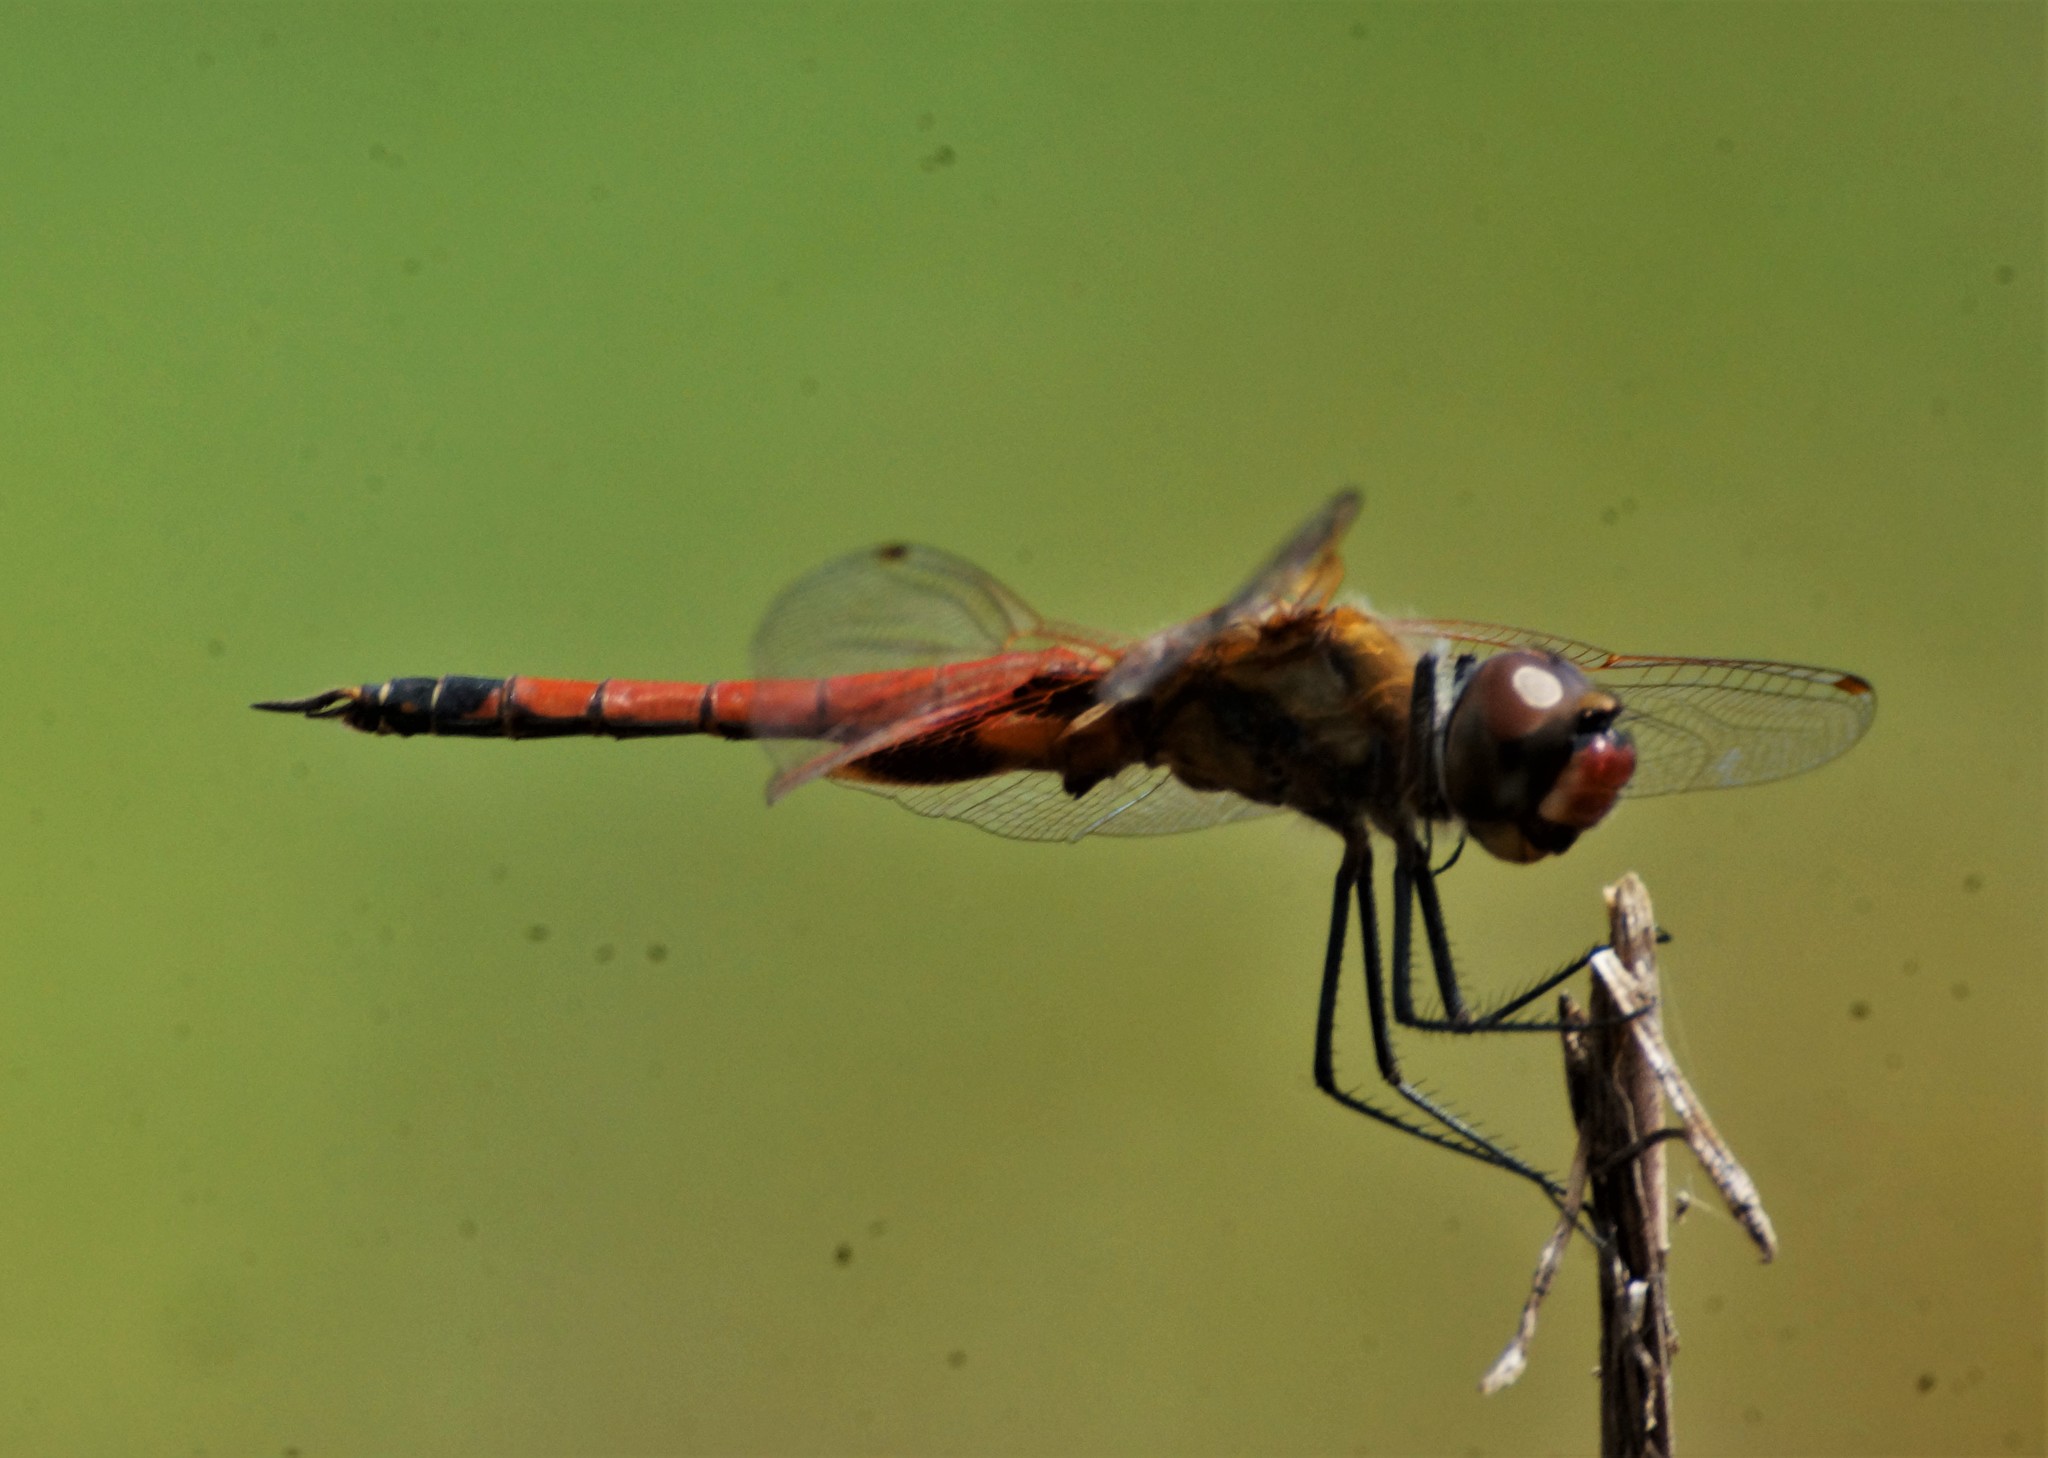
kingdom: Animalia
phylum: Arthropoda
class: Insecta
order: Odonata
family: Libellulidae
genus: Tramea
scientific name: Tramea loewii
